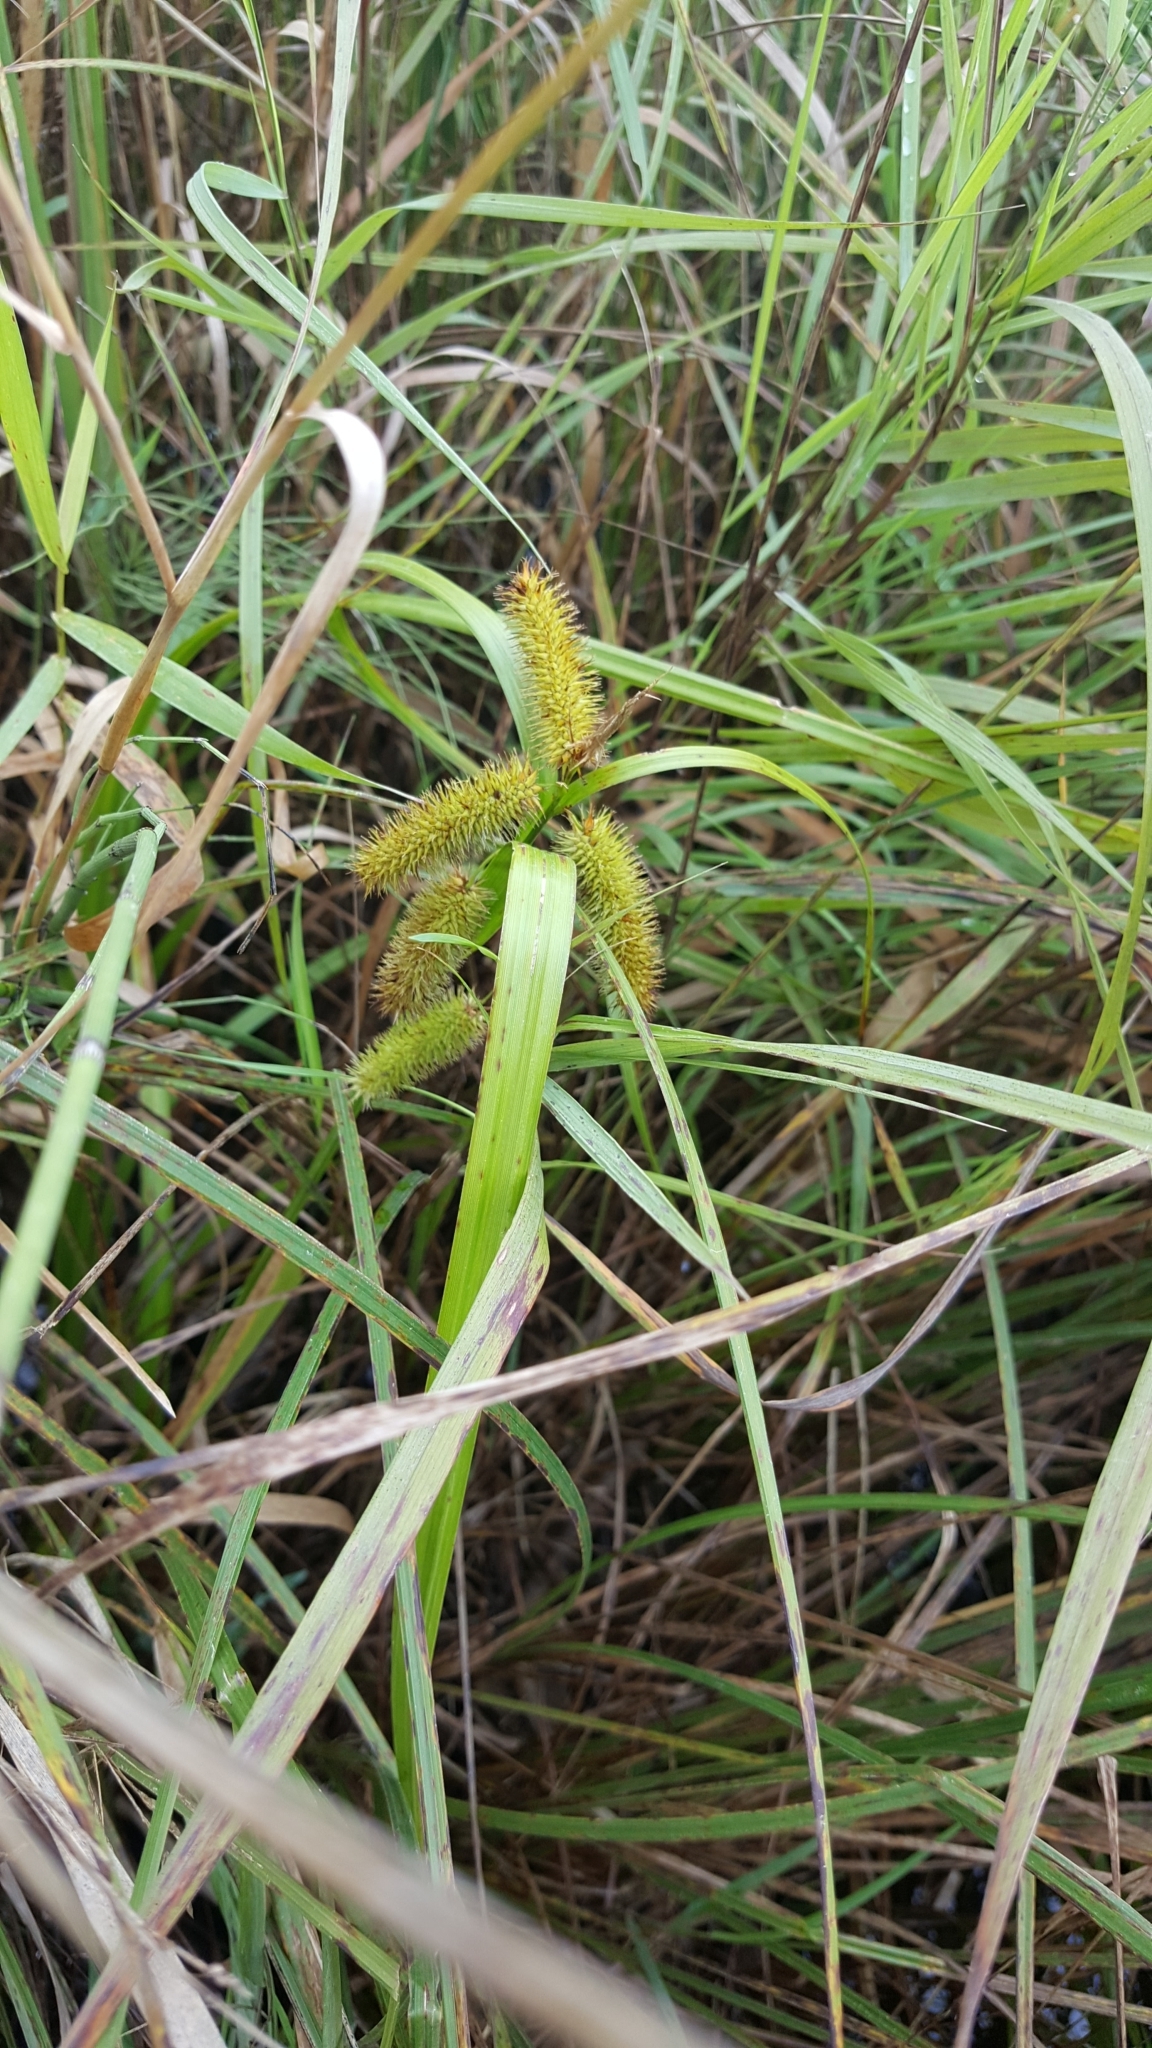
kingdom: Plantae
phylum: Tracheophyta
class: Liliopsida
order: Poales
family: Cyperaceae
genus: Carex
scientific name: Carex comosa
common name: Bristly sedge
